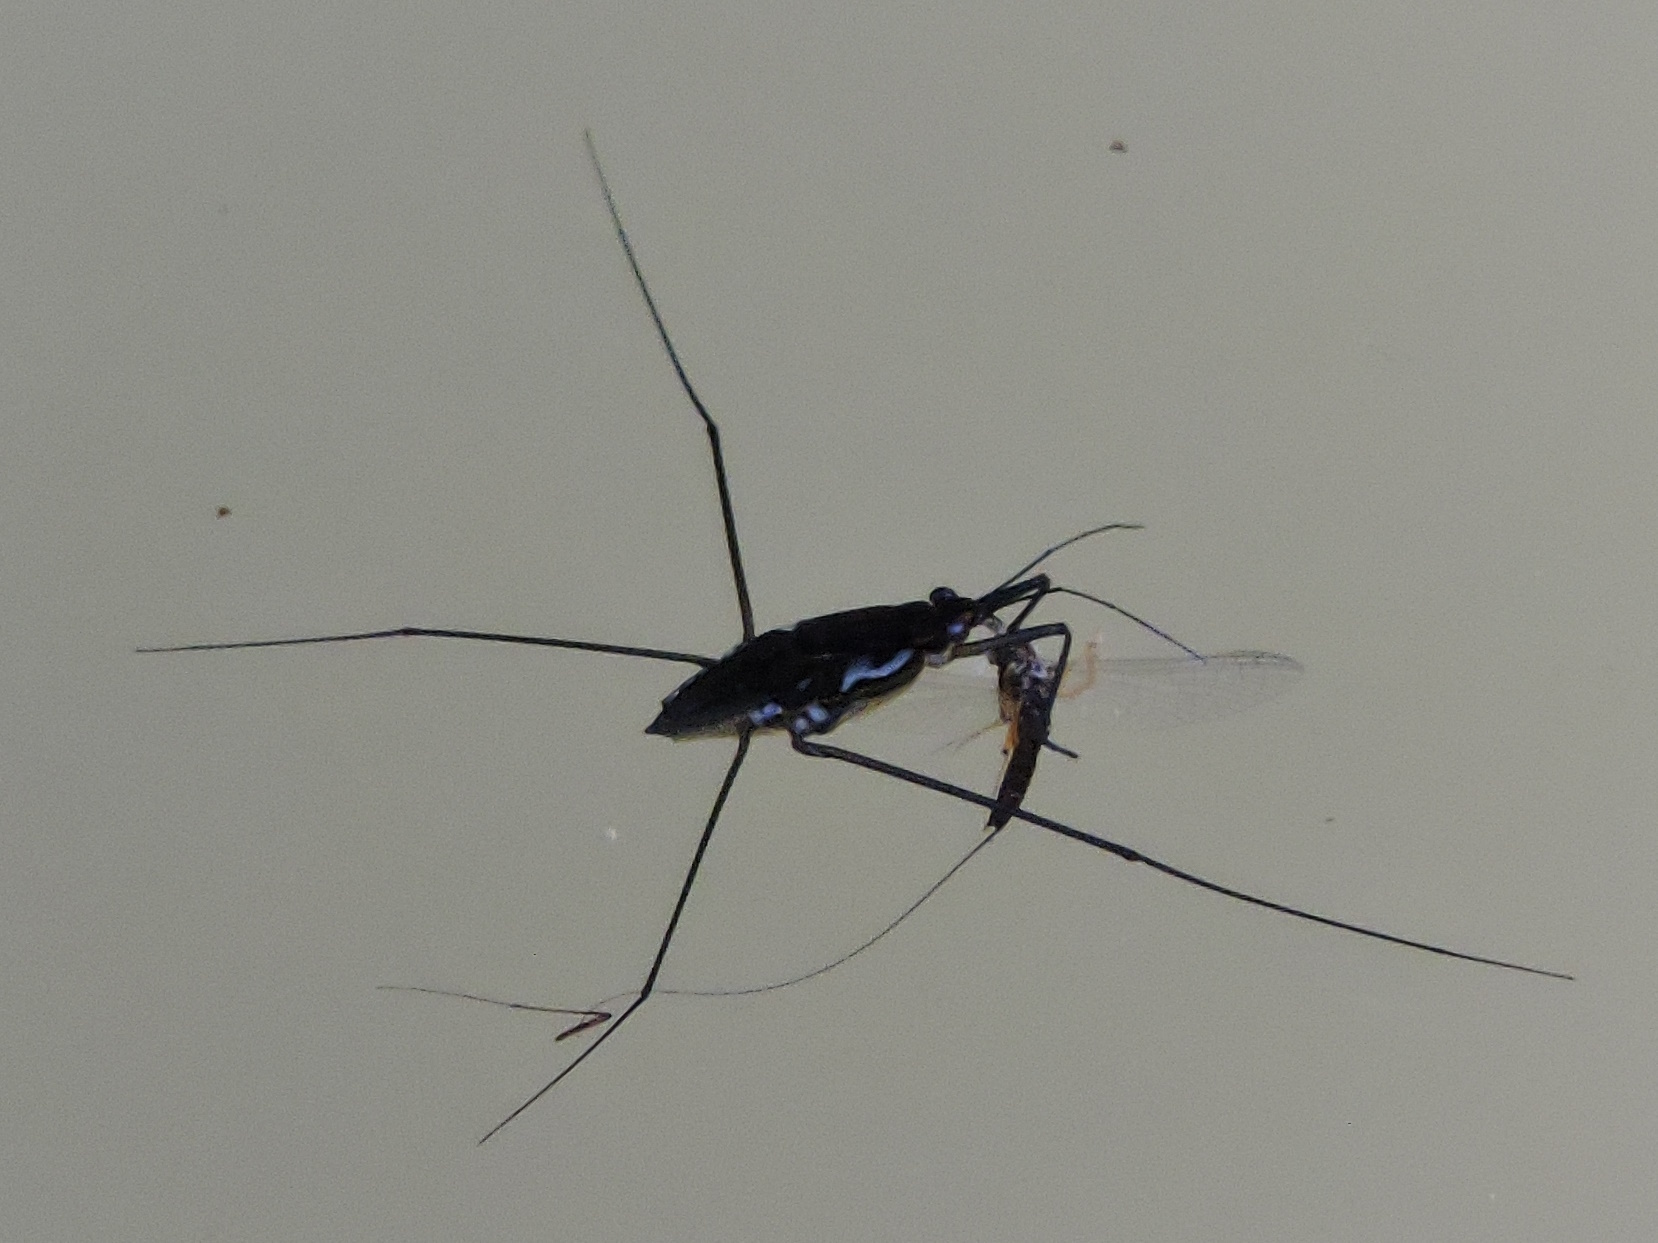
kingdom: Animalia
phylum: Arthropoda
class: Insecta
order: Hemiptera
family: Gerridae
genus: Tenagogerris
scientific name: Tenagogerris euphrosyne
